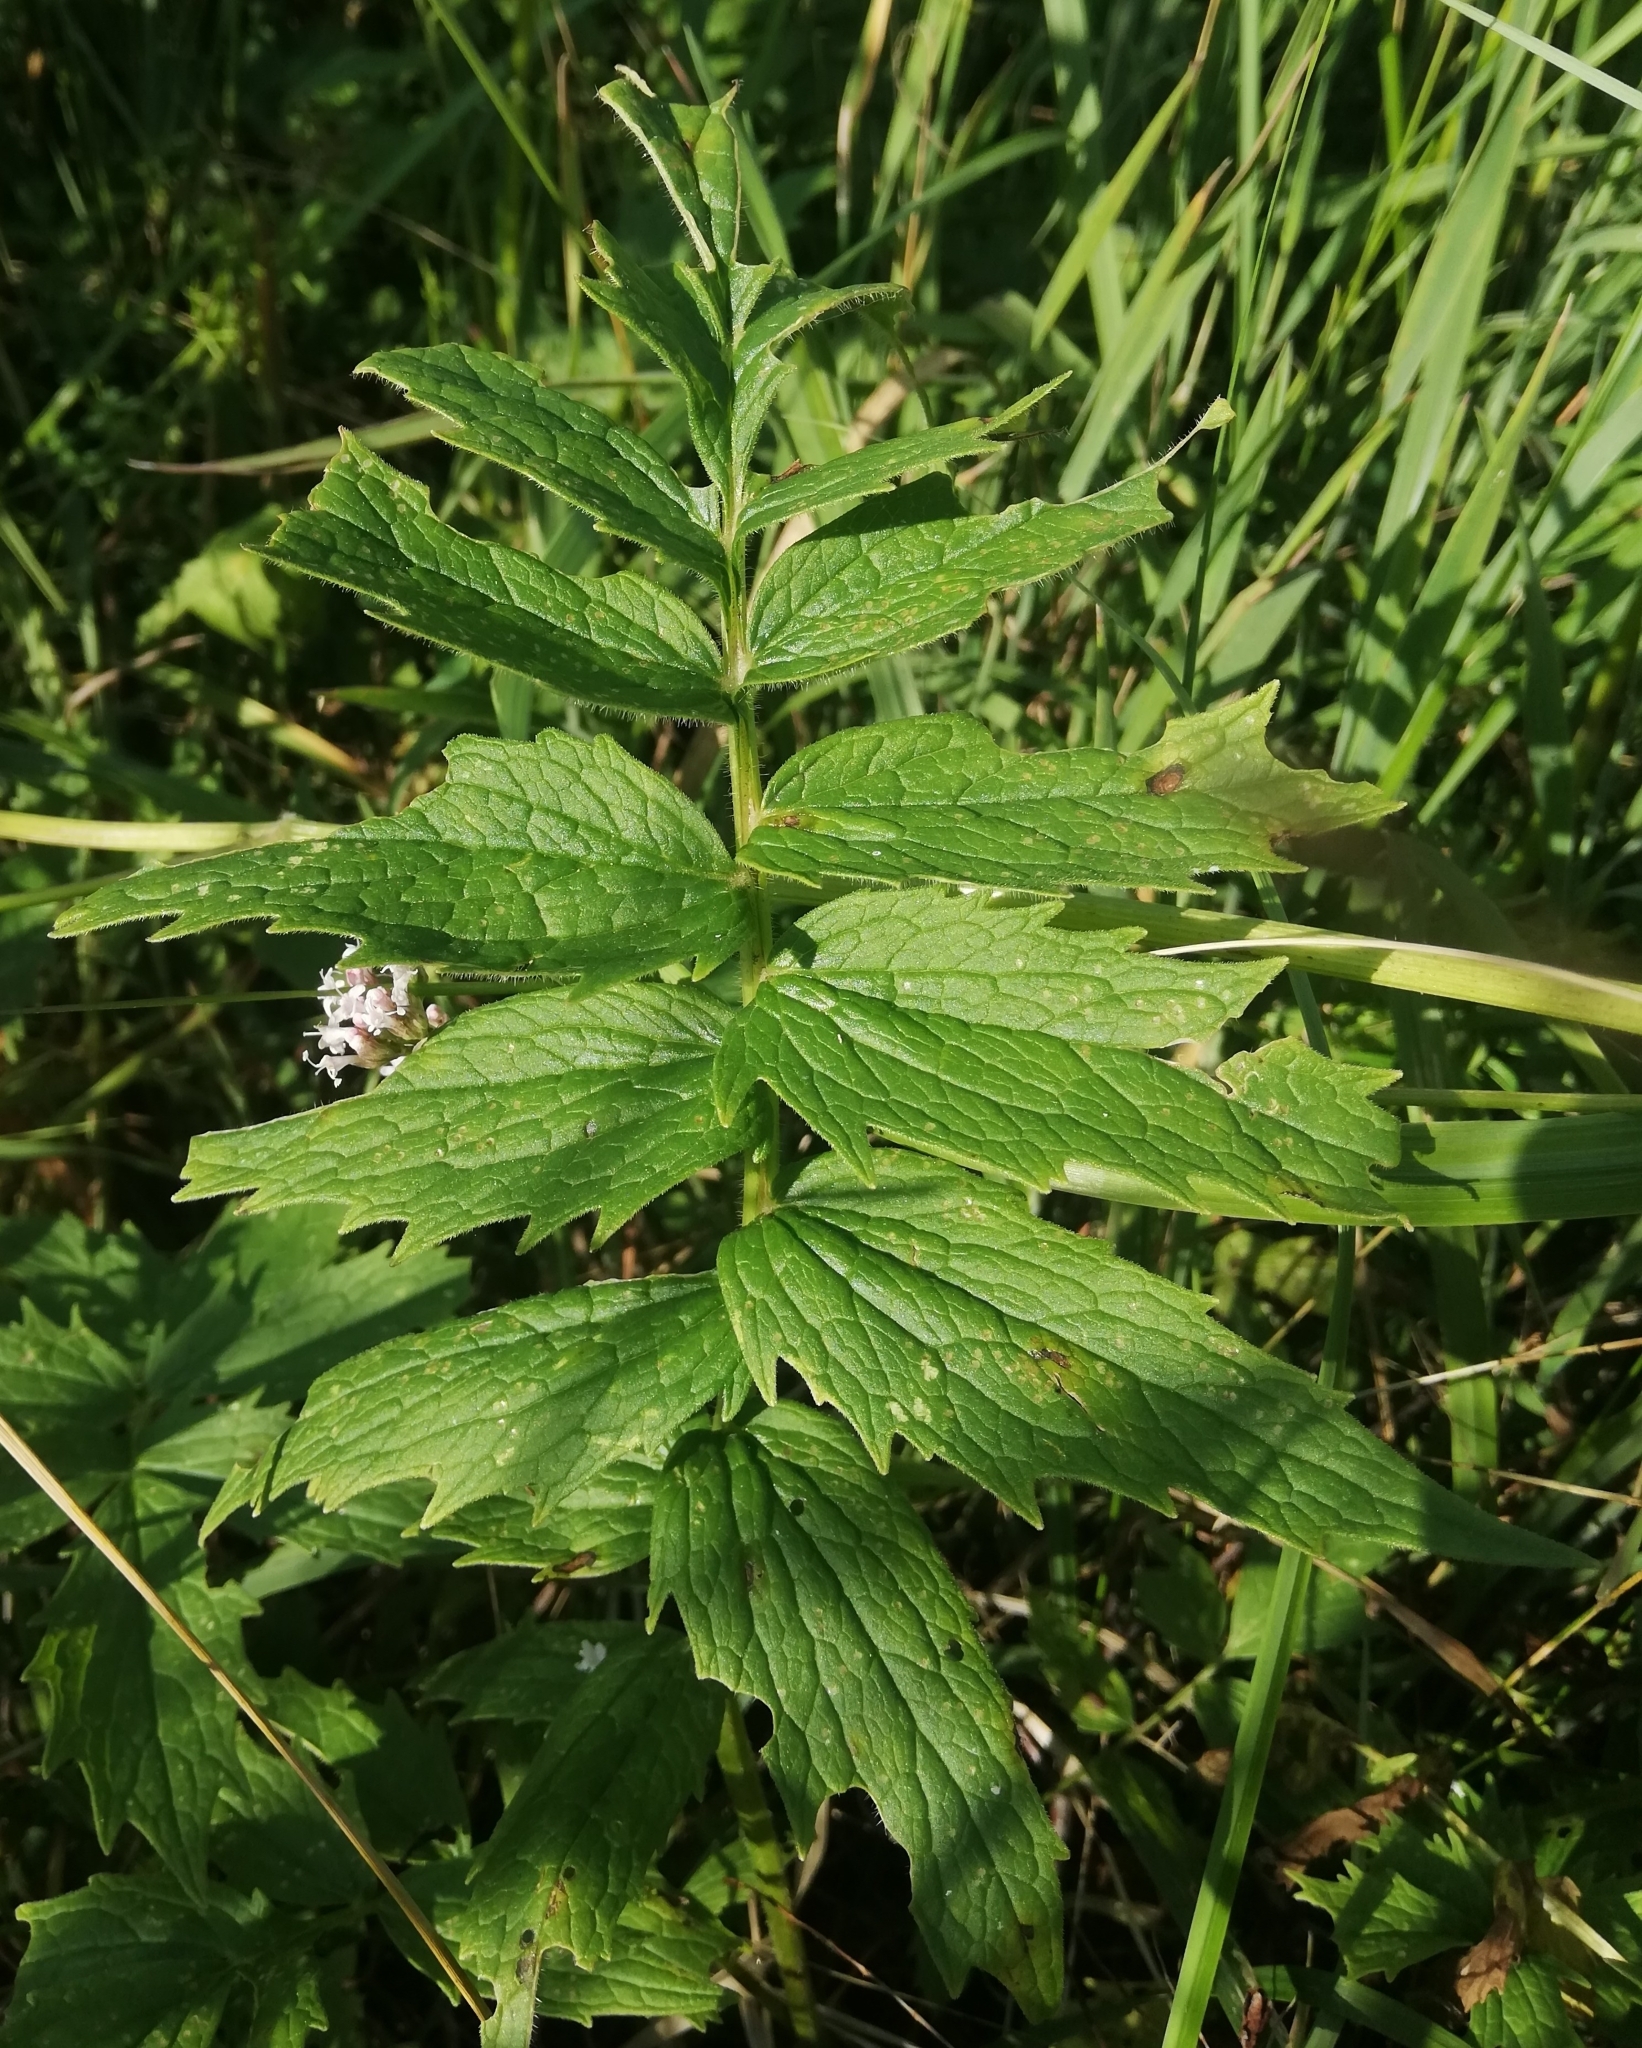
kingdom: Plantae
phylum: Tracheophyta
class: Magnoliopsida
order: Dipsacales
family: Caprifoliaceae
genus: Valeriana
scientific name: Valeriana officinalis
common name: Common valerian
